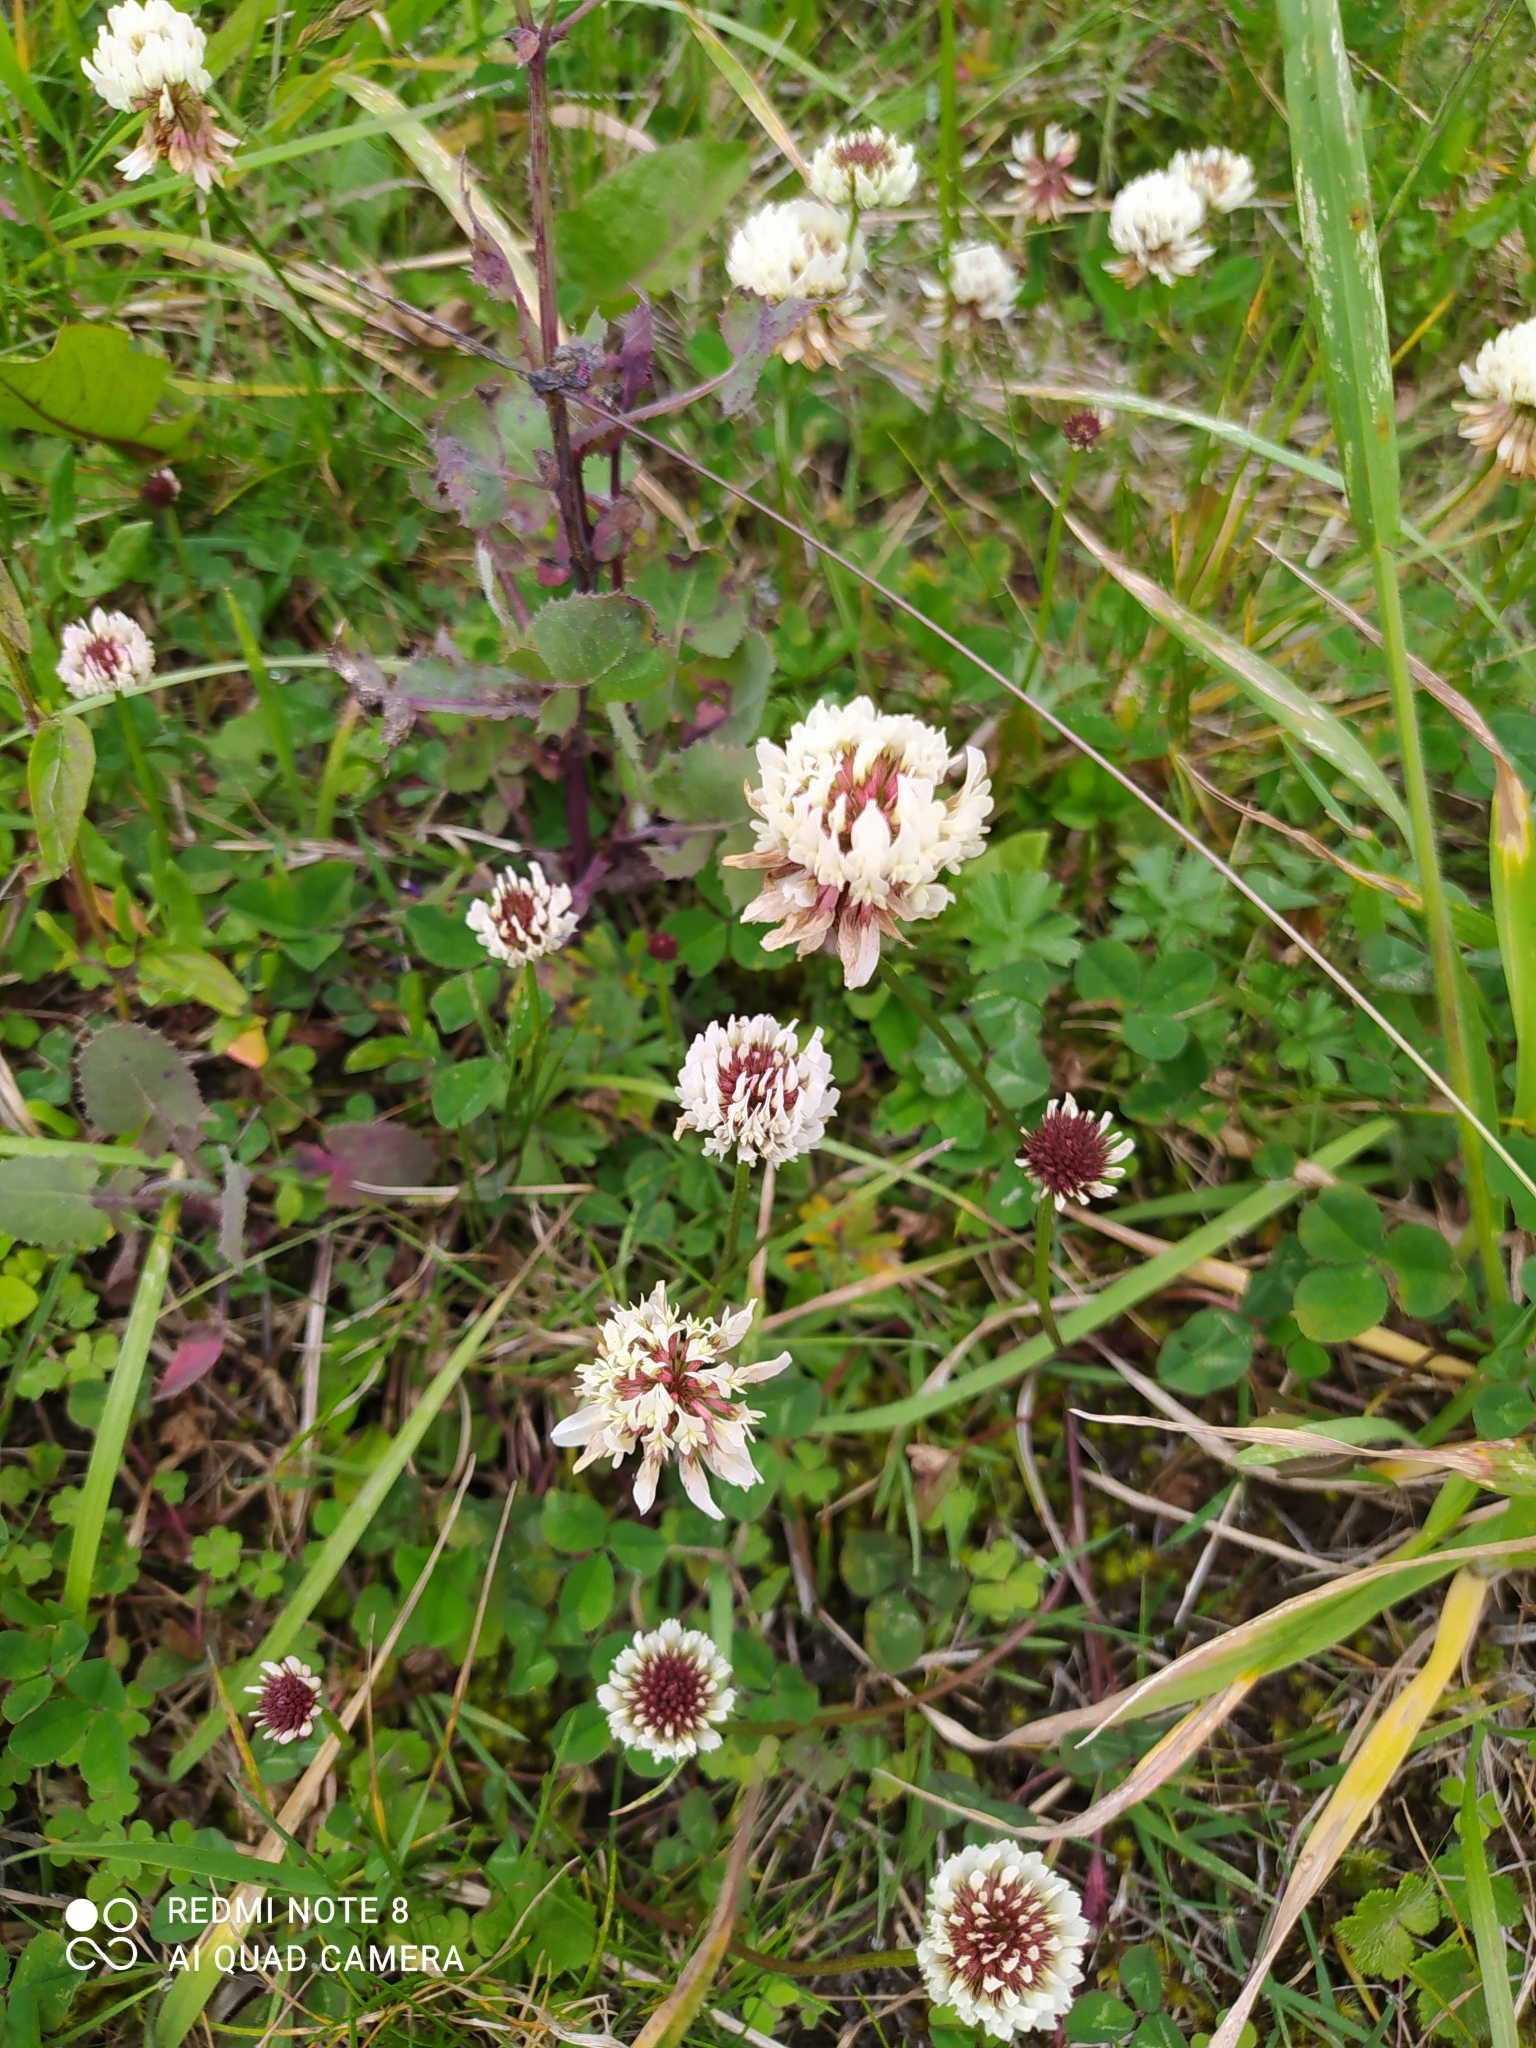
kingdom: Plantae
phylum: Tracheophyta
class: Magnoliopsida
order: Fabales
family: Fabaceae
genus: Trifolium
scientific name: Trifolium repens
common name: White clover
